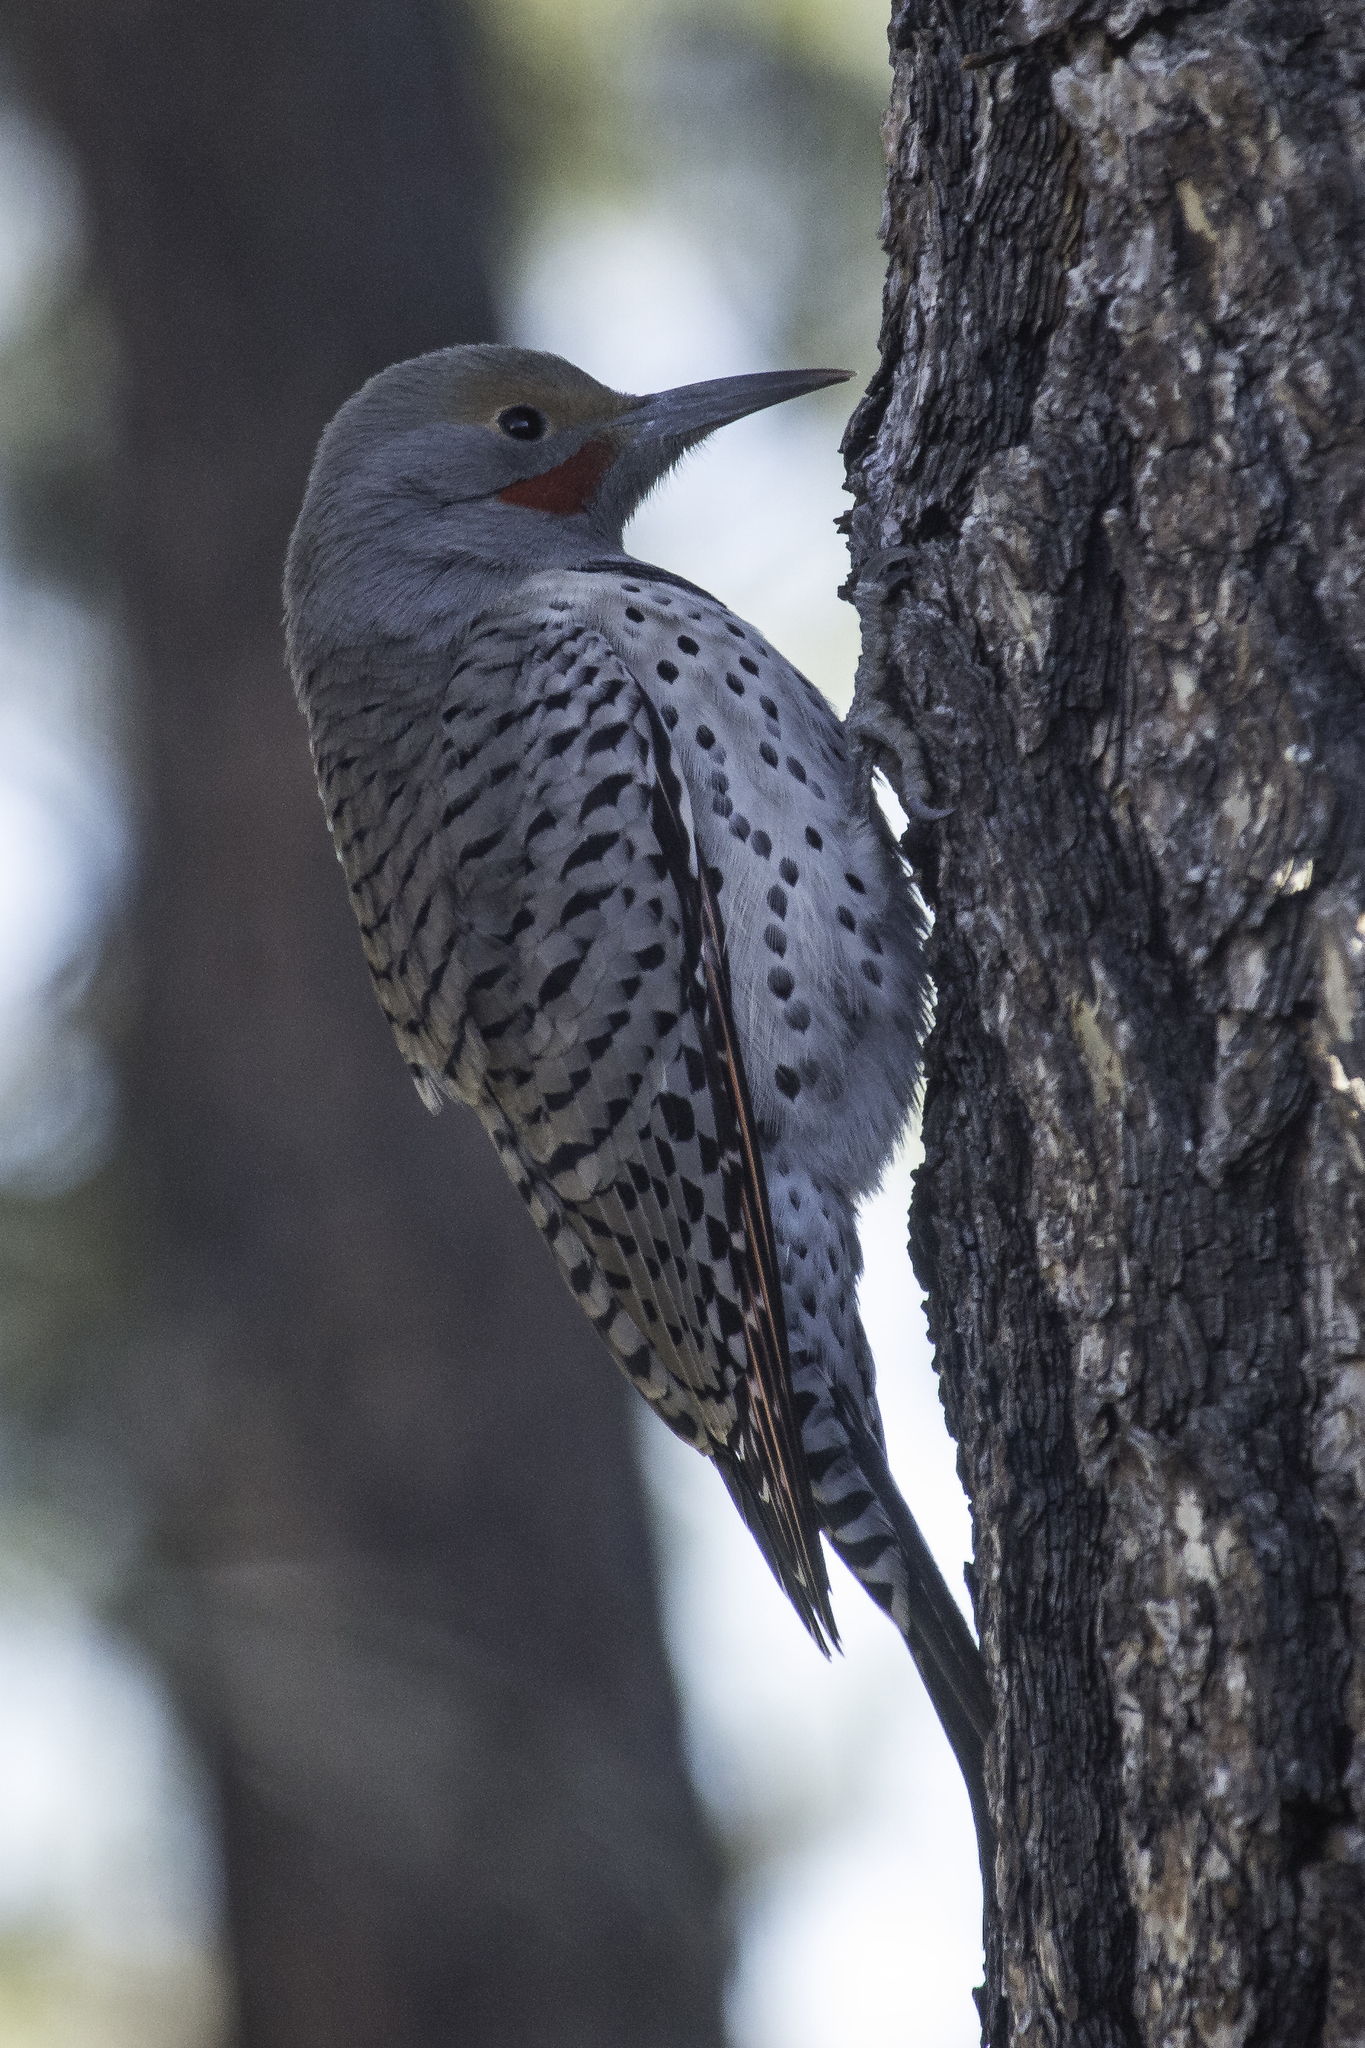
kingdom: Animalia
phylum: Chordata
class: Aves
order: Piciformes
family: Picidae
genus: Colaptes
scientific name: Colaptes auratus
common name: Northern flicker
